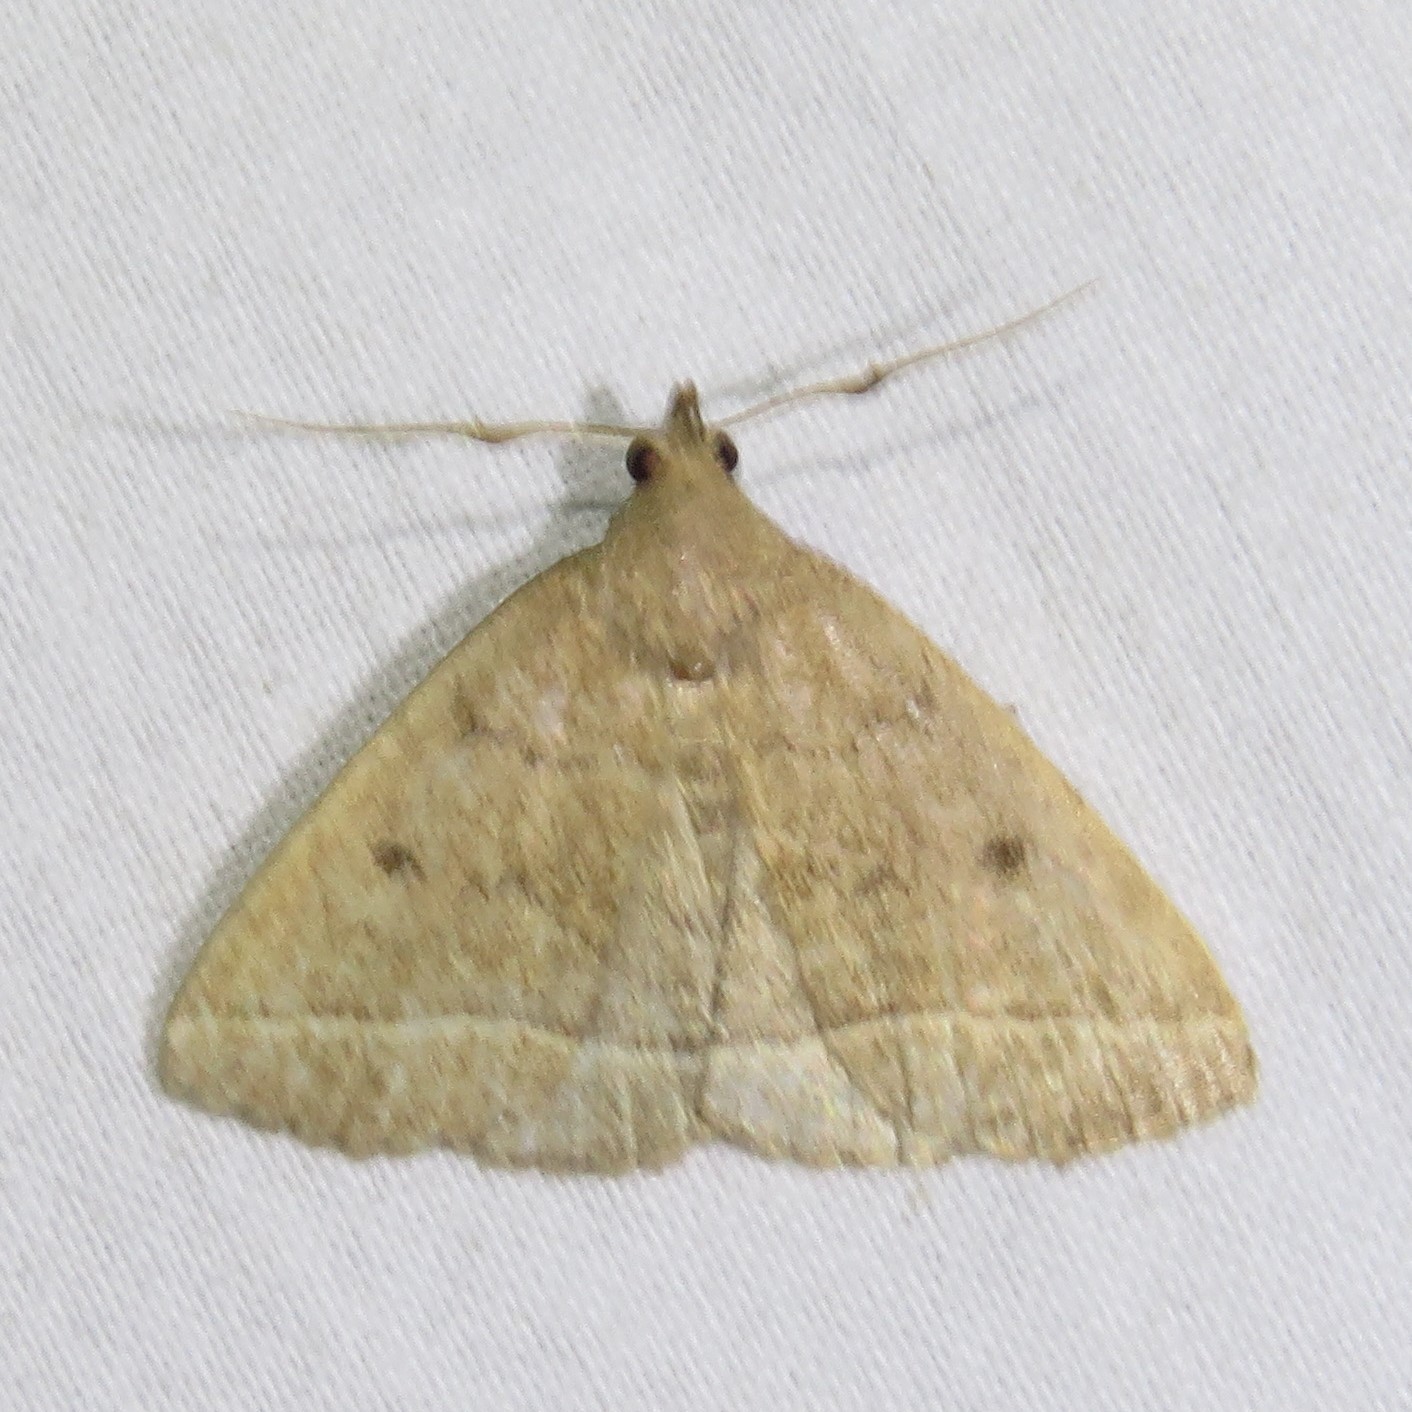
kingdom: Animalia
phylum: Arthropoda
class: Insecta
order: Lepidoptera
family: Erebidae
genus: Zanclognatha
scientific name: Zanclognatha jacchusalis
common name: Yellowish zanclognatha
